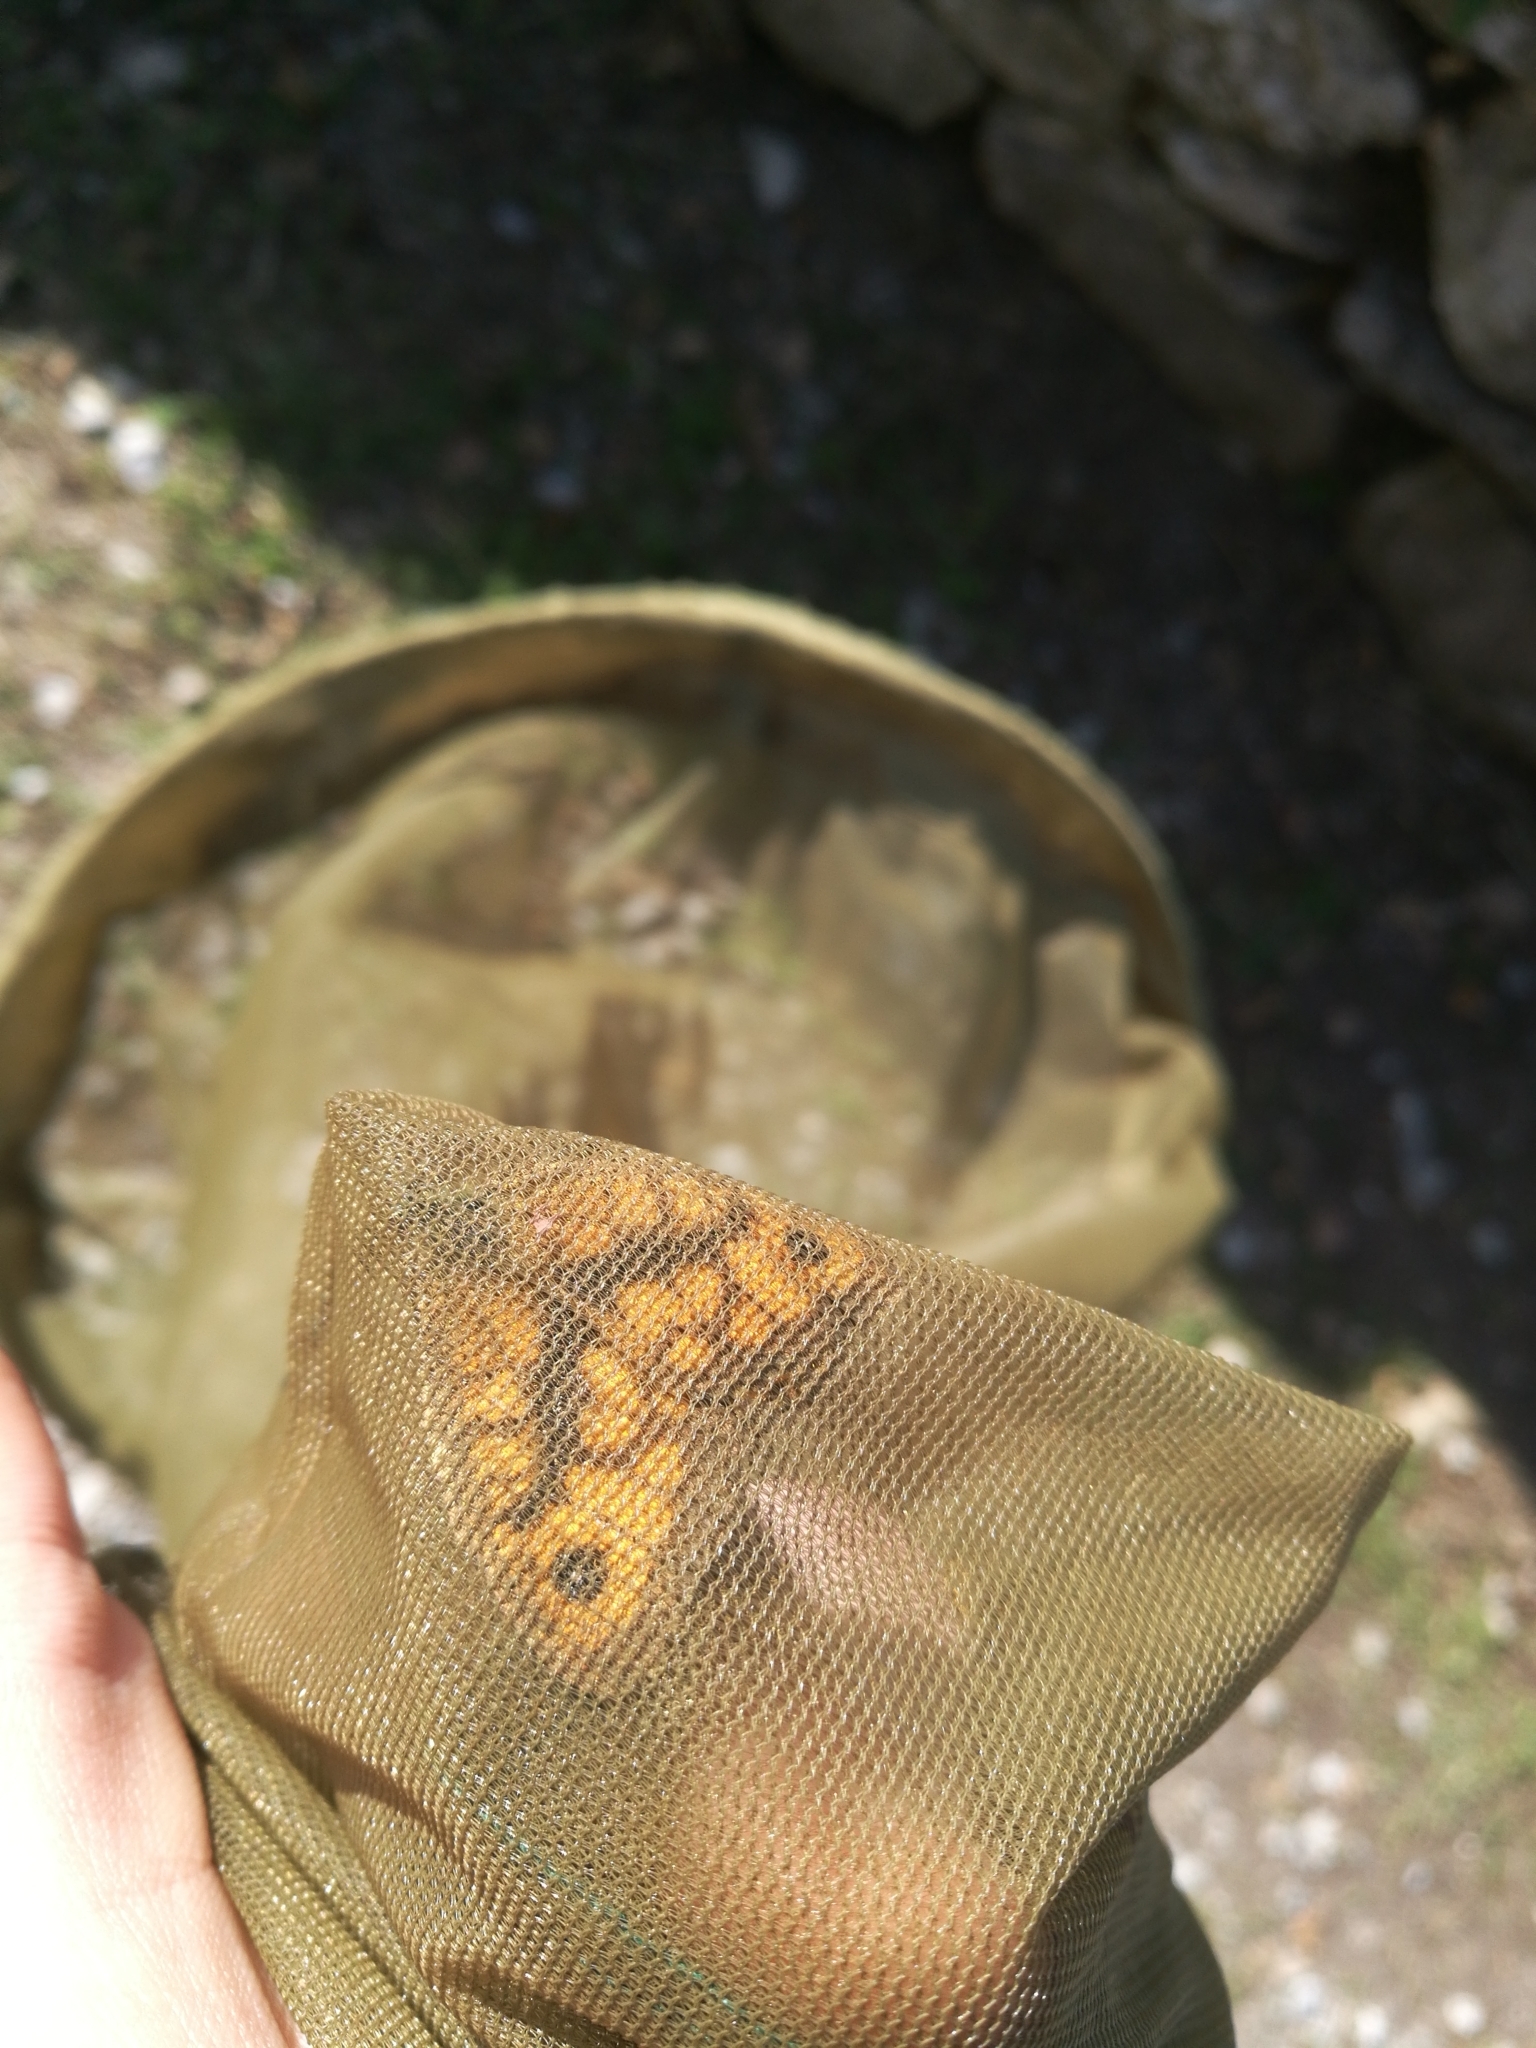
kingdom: Animalia
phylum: Arthropoda
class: Insecta
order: Lepidoptera
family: Nymphalidae
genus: Pararge
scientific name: Pararge Lasiommata megera
